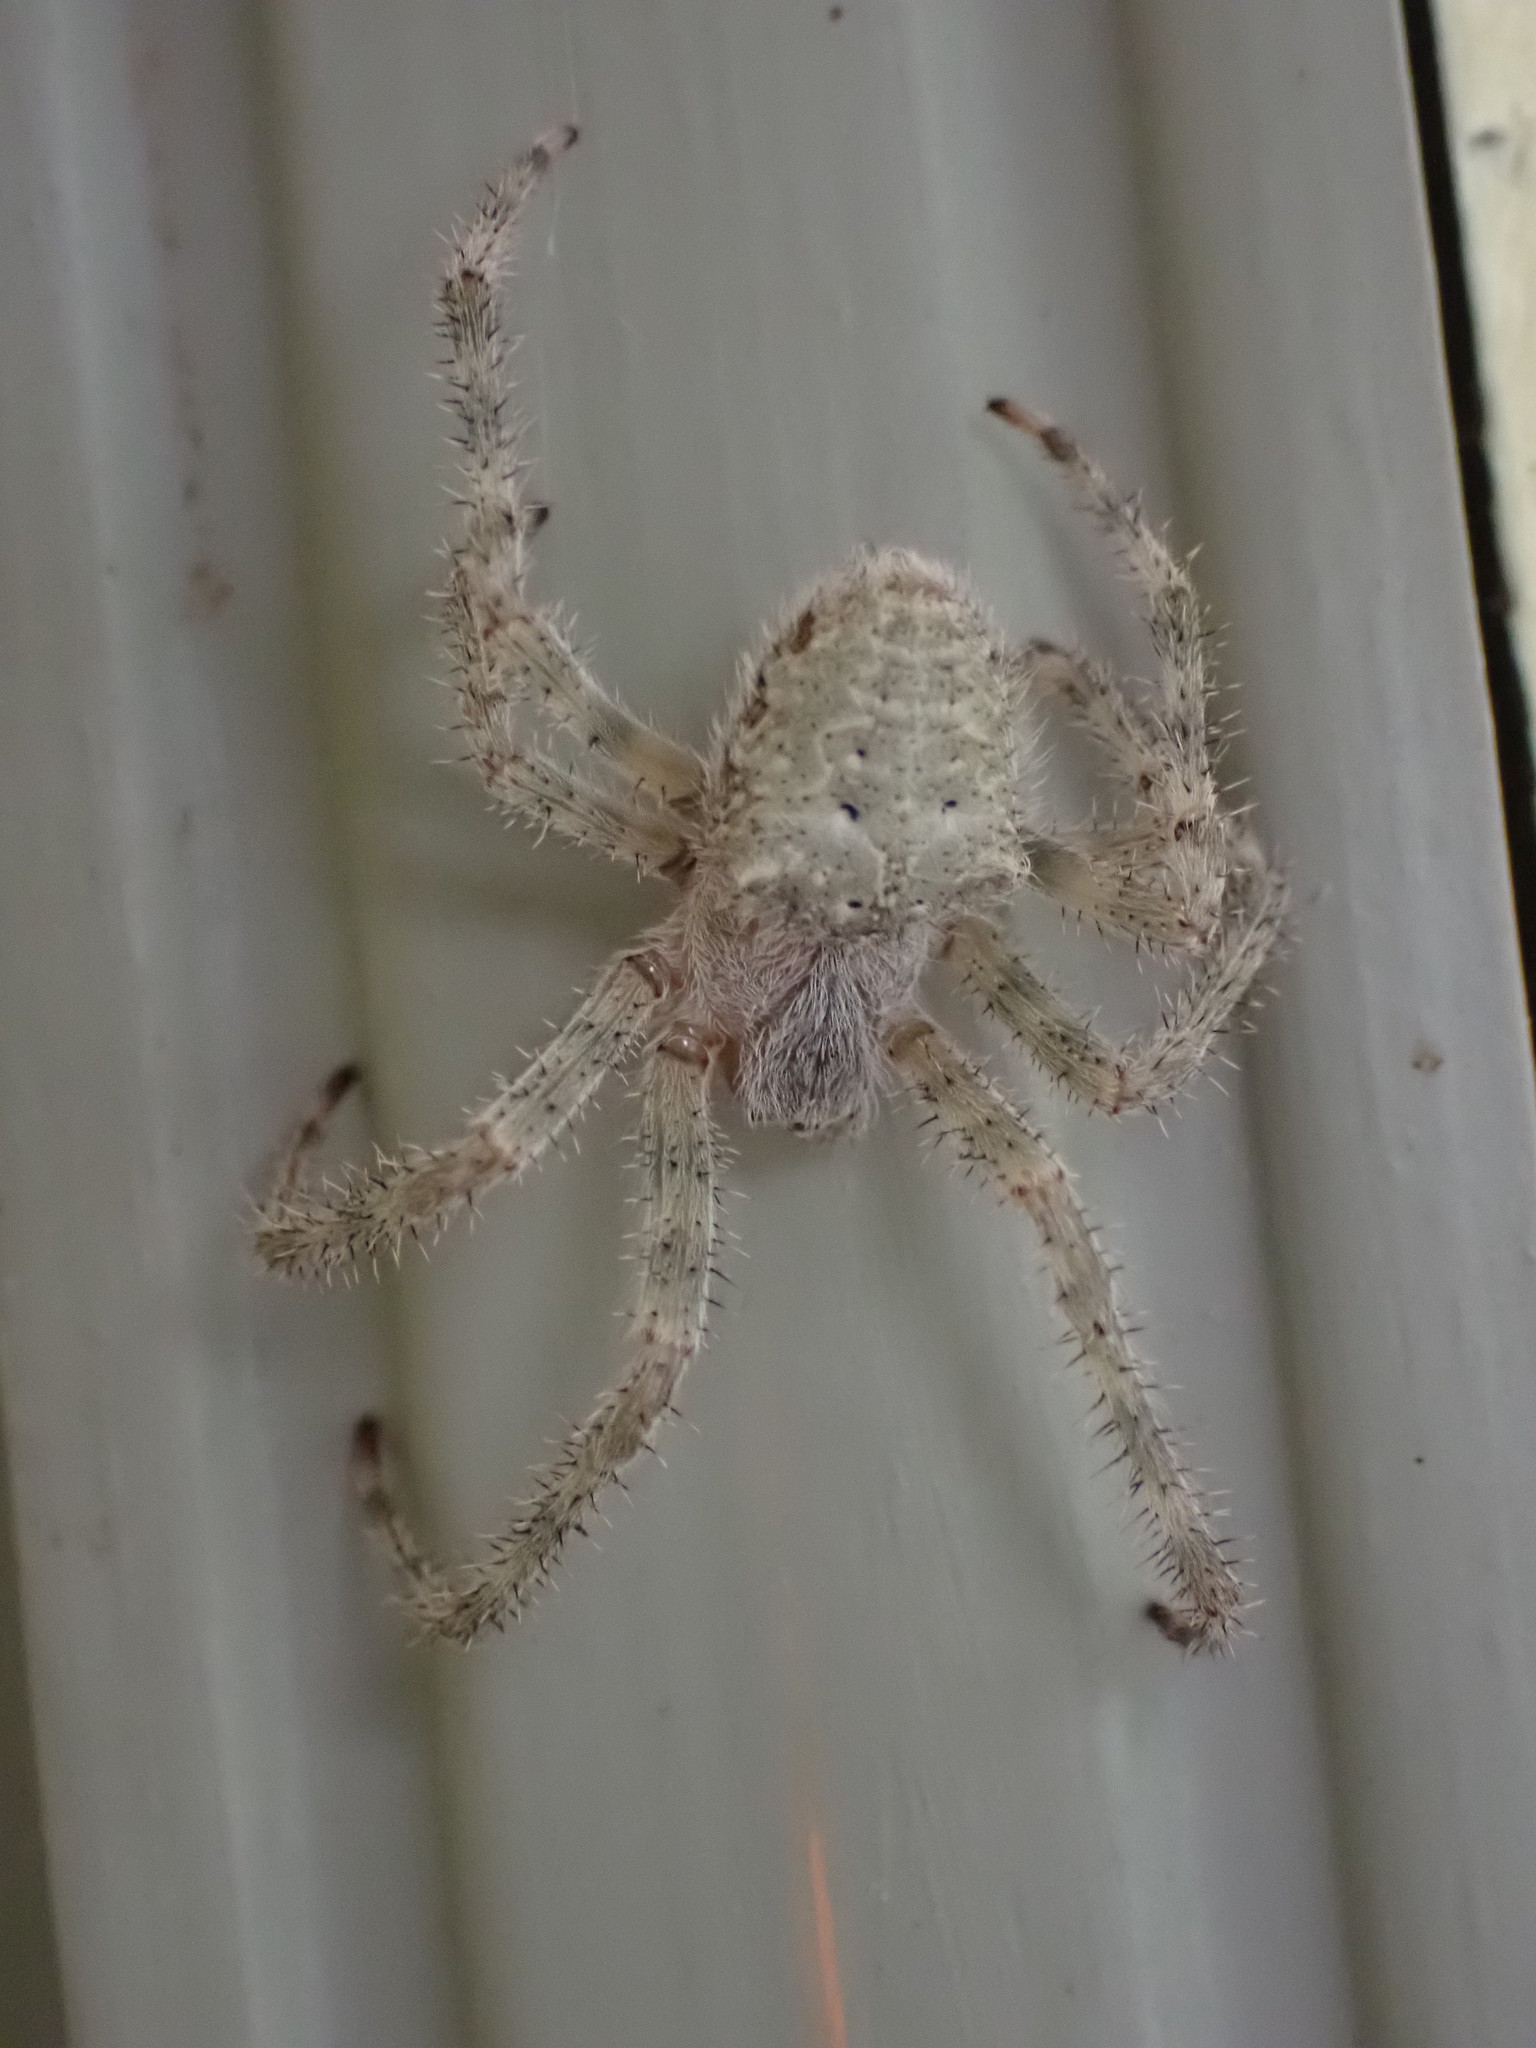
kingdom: Animalia
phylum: Arthropoda
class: Arachnida
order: Araneae
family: Araneidae
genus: Araneus
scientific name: Araneus cavaticus
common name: Barn orbweaver
